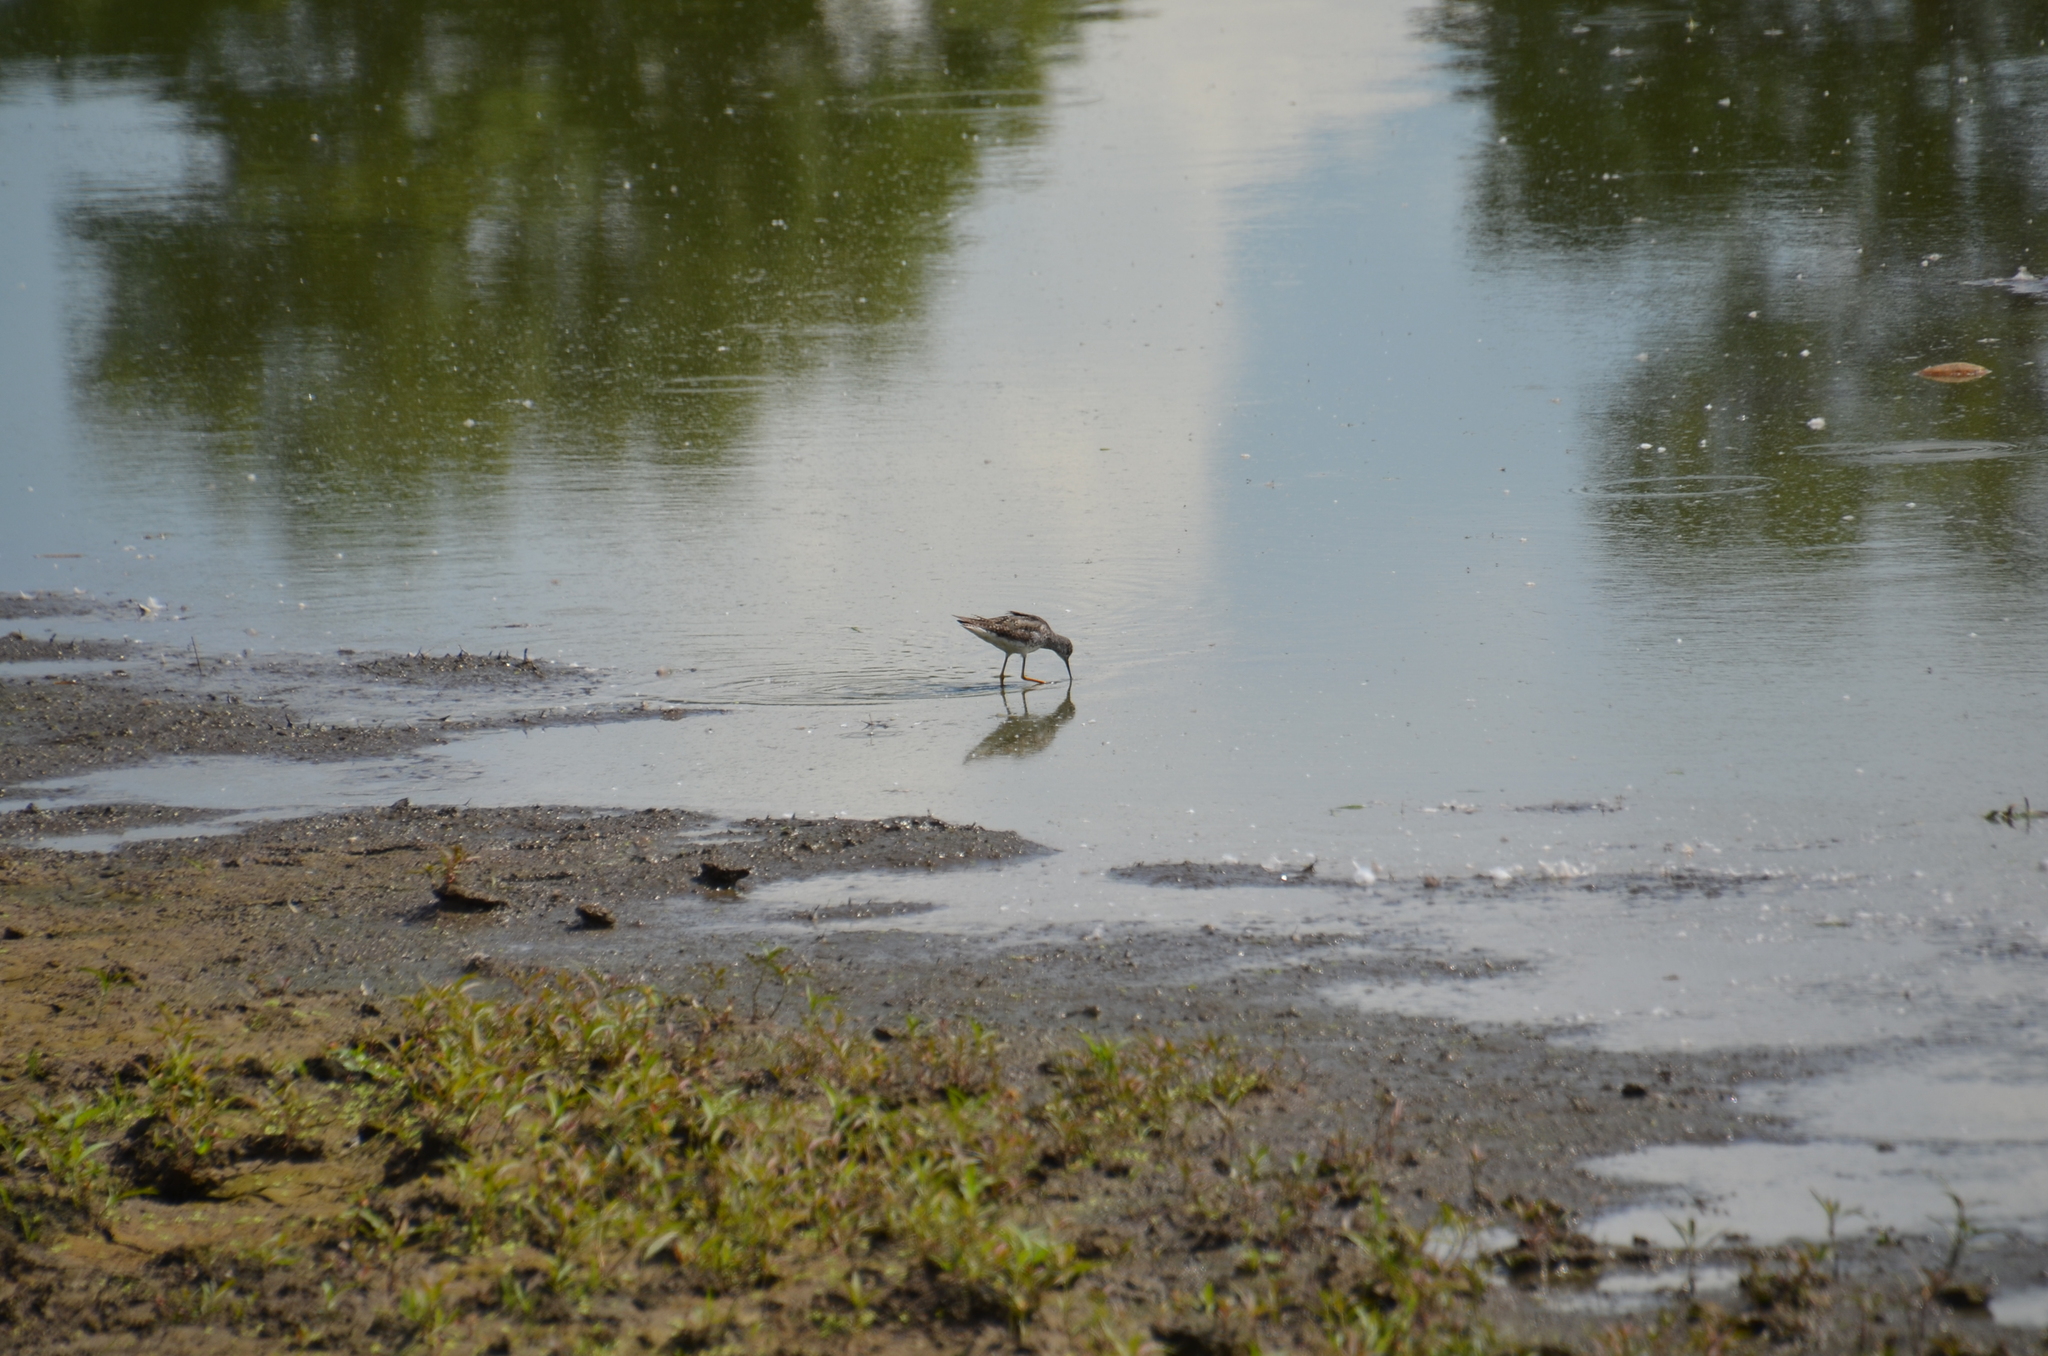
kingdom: Animalia
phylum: Chordata
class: Aves
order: Charadriiformes
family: Scolopacidae
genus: Tringa
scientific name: Tringa flavipes
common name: Lesser yellowlegs
